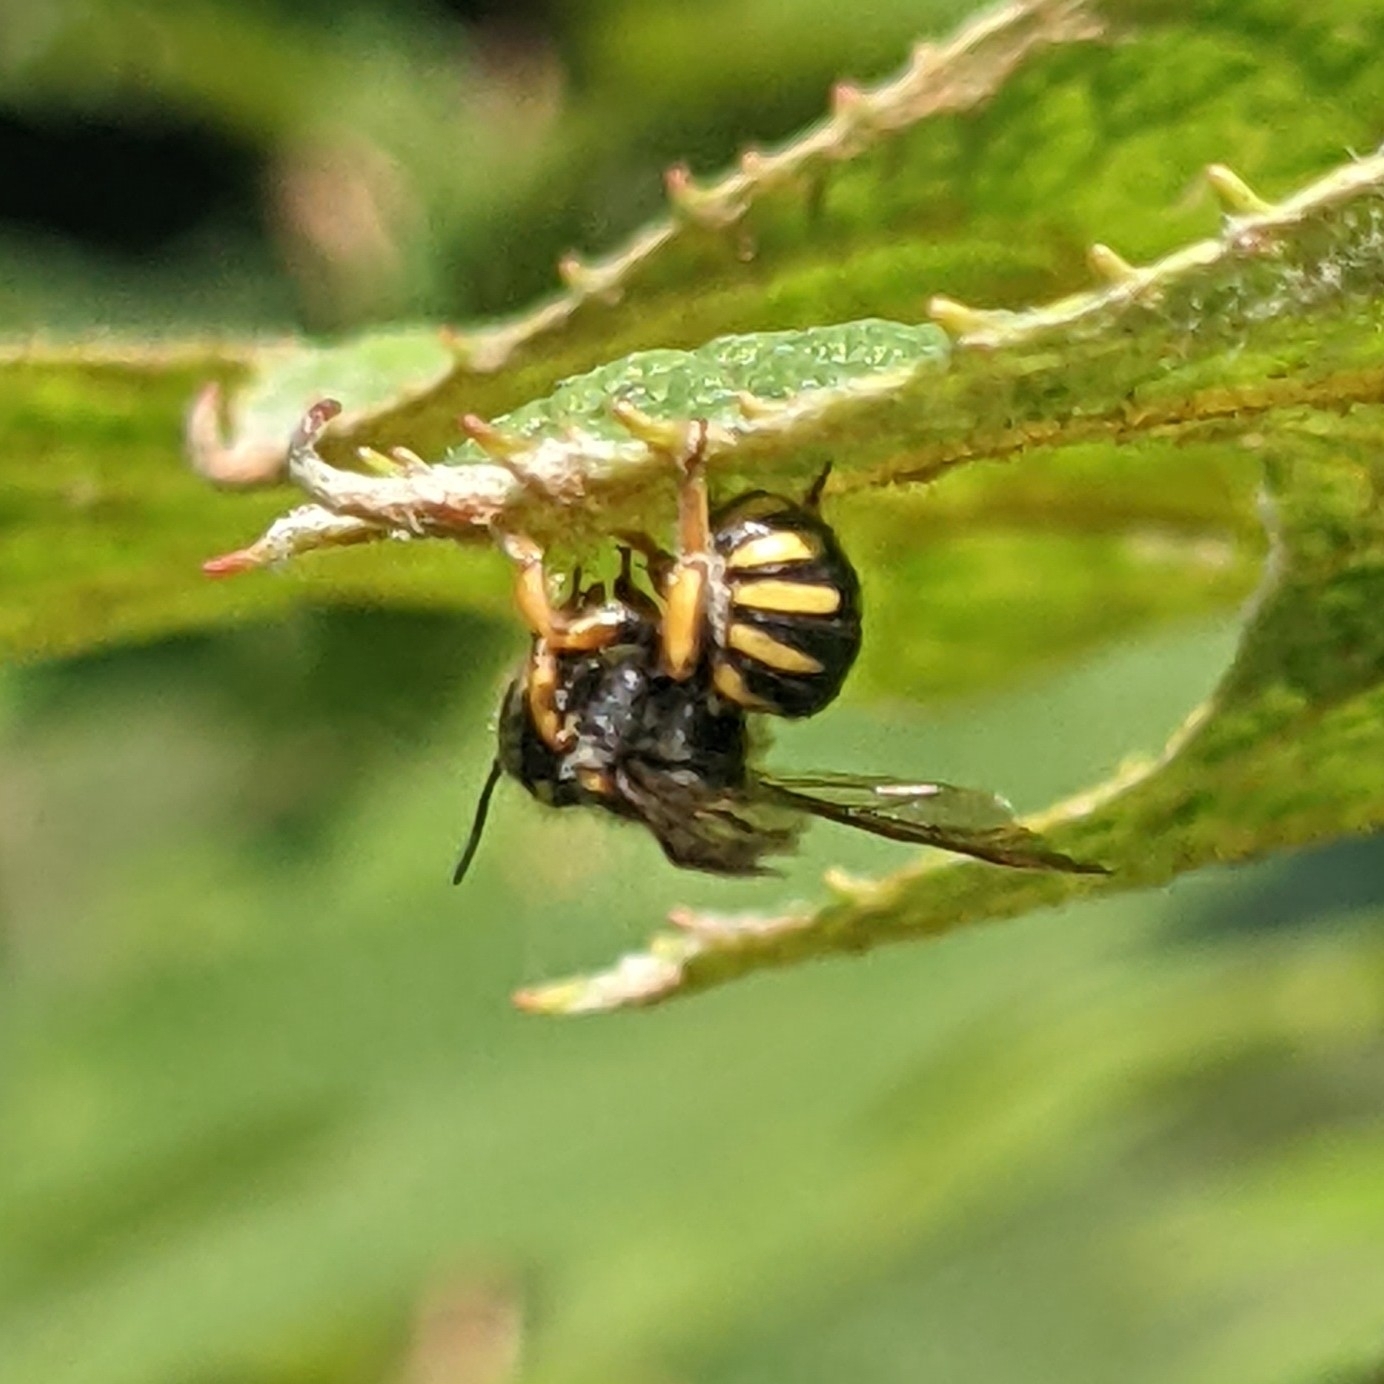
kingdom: Animalia
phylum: Arthropoda
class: Insecta
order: Hymenoptera
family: Megachilidae
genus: Anthidium
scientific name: Anthidium oblongatum
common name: Oblong wool carder bee
